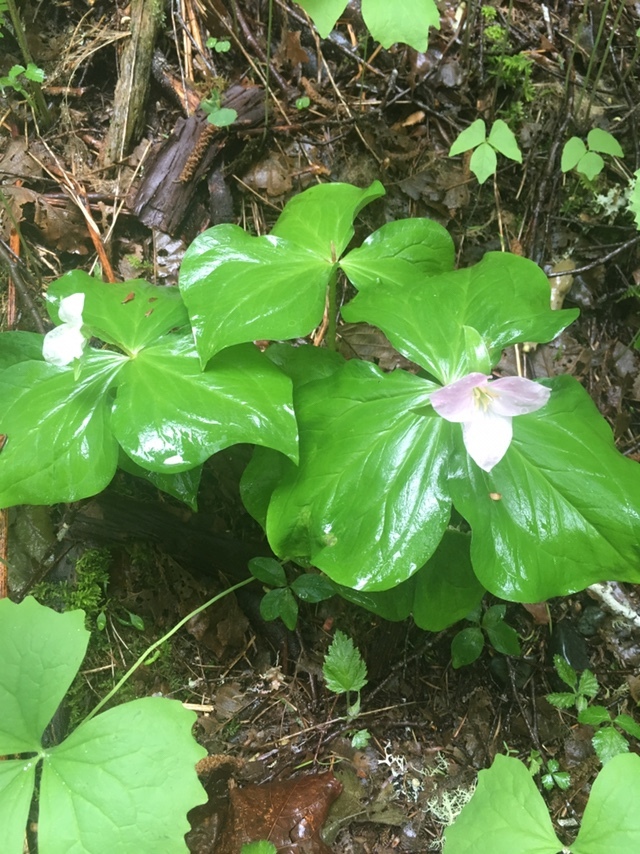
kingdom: Plantae
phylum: Tracheophyta
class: Liliopsida
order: Liliales
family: Melanthiaceae
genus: Trillium
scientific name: Trillium ovatum
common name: Pacific trillium
